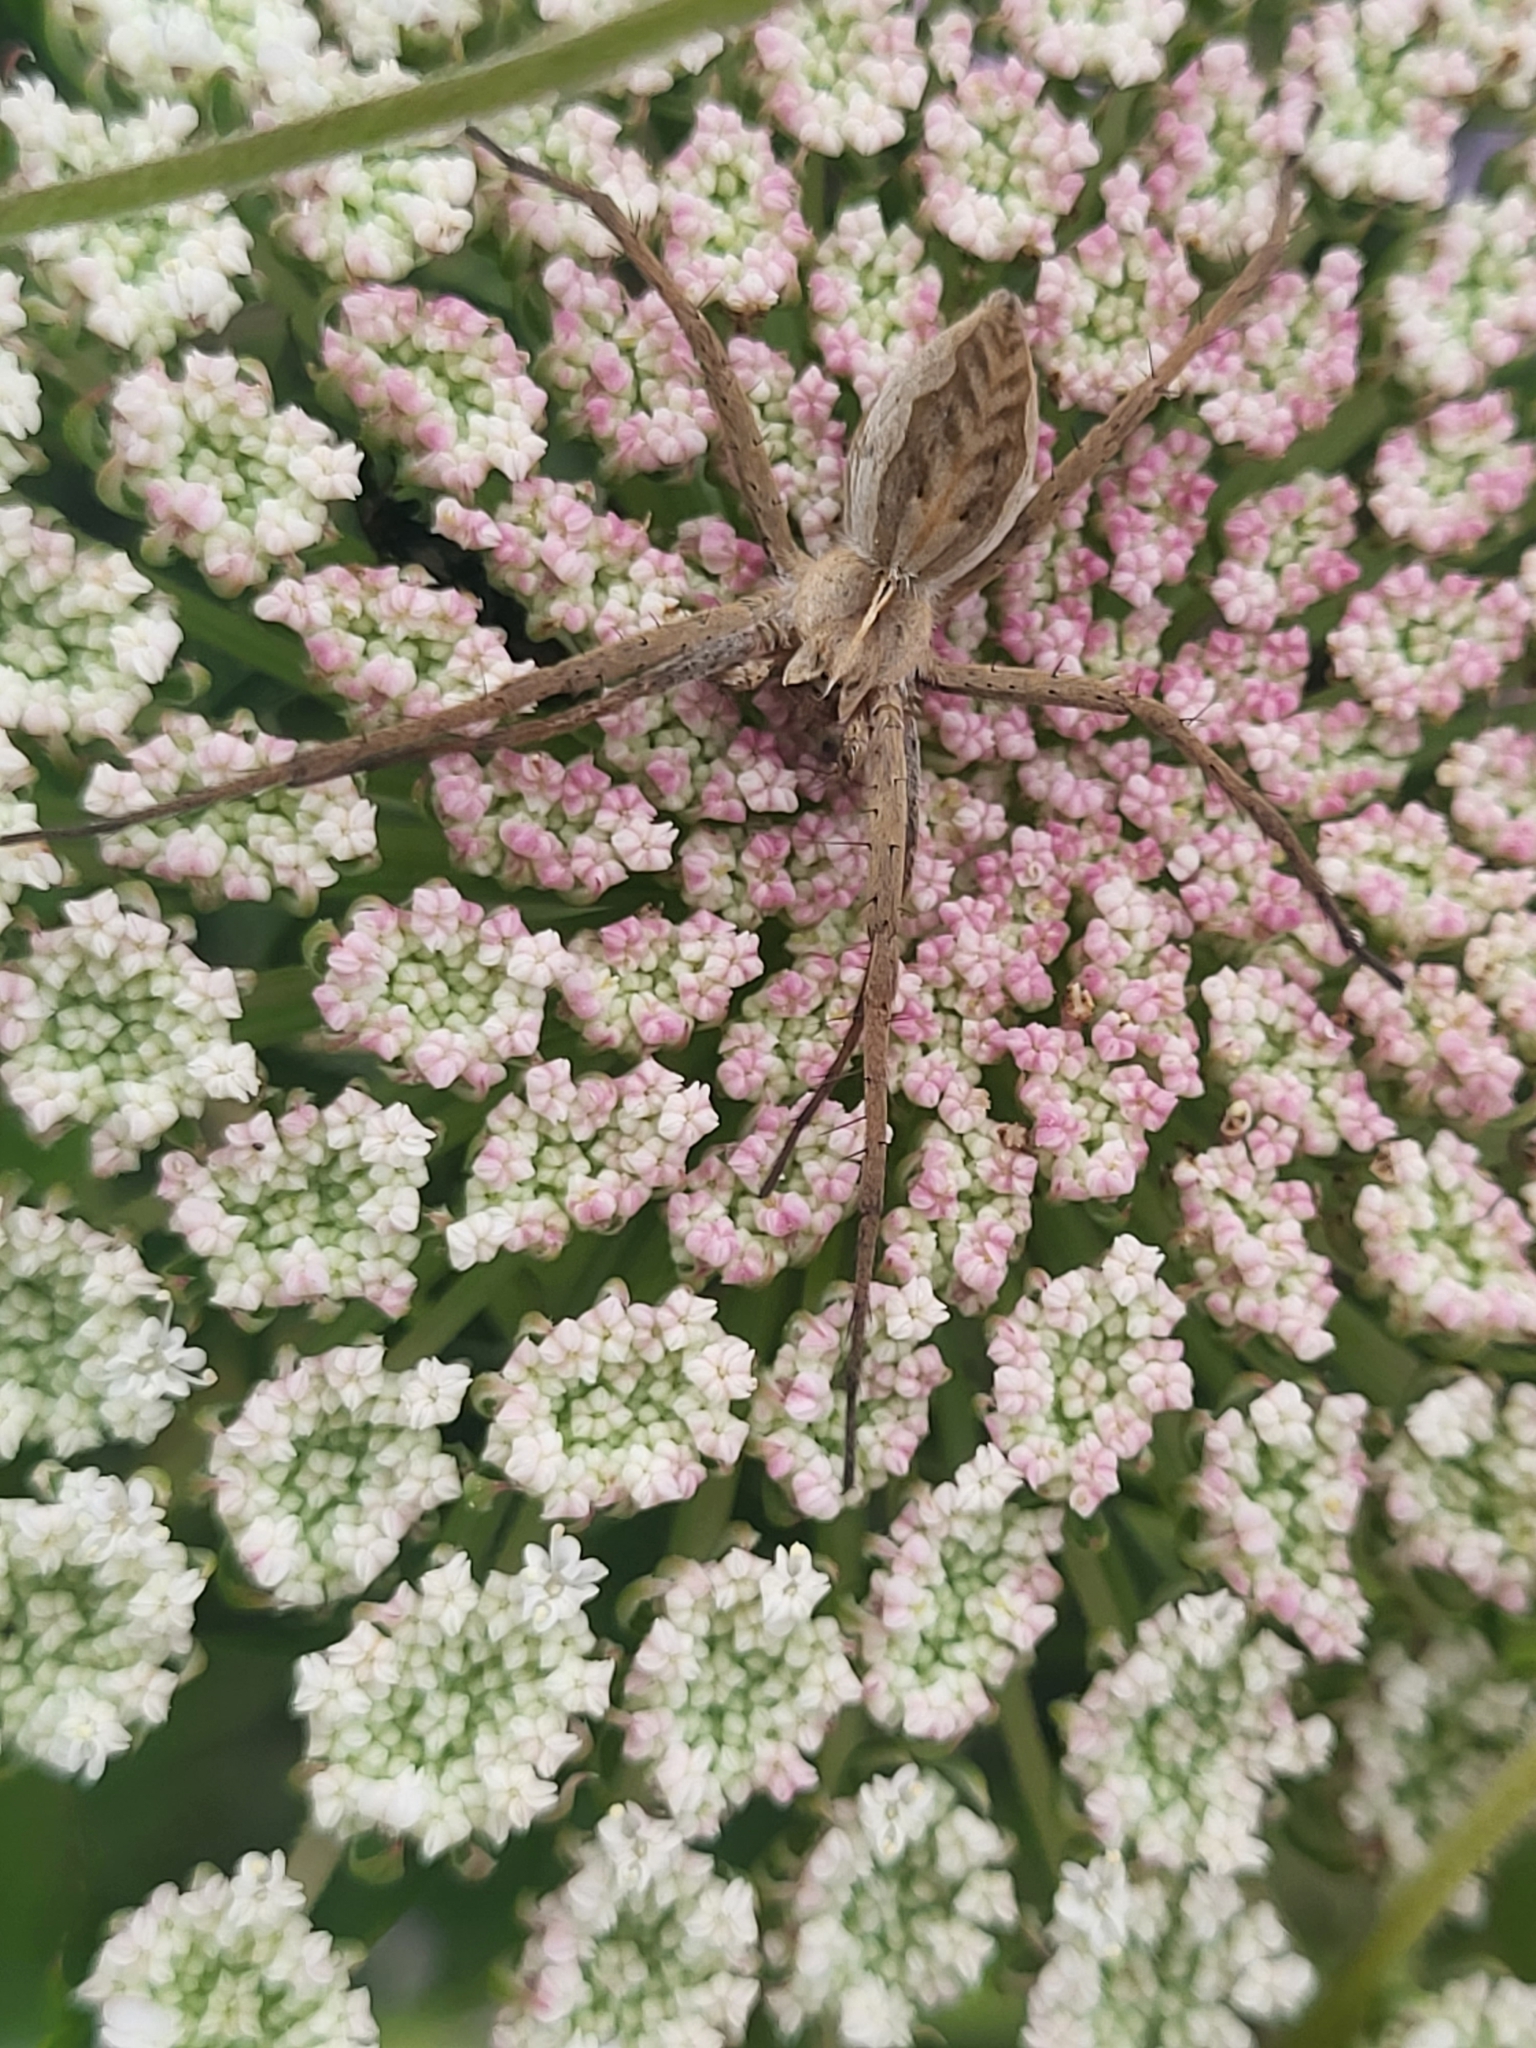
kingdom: Animalia
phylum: Arthropoda
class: Arachnida
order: Araneae
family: Pisauridae
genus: Pisaura
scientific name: Pisaura
